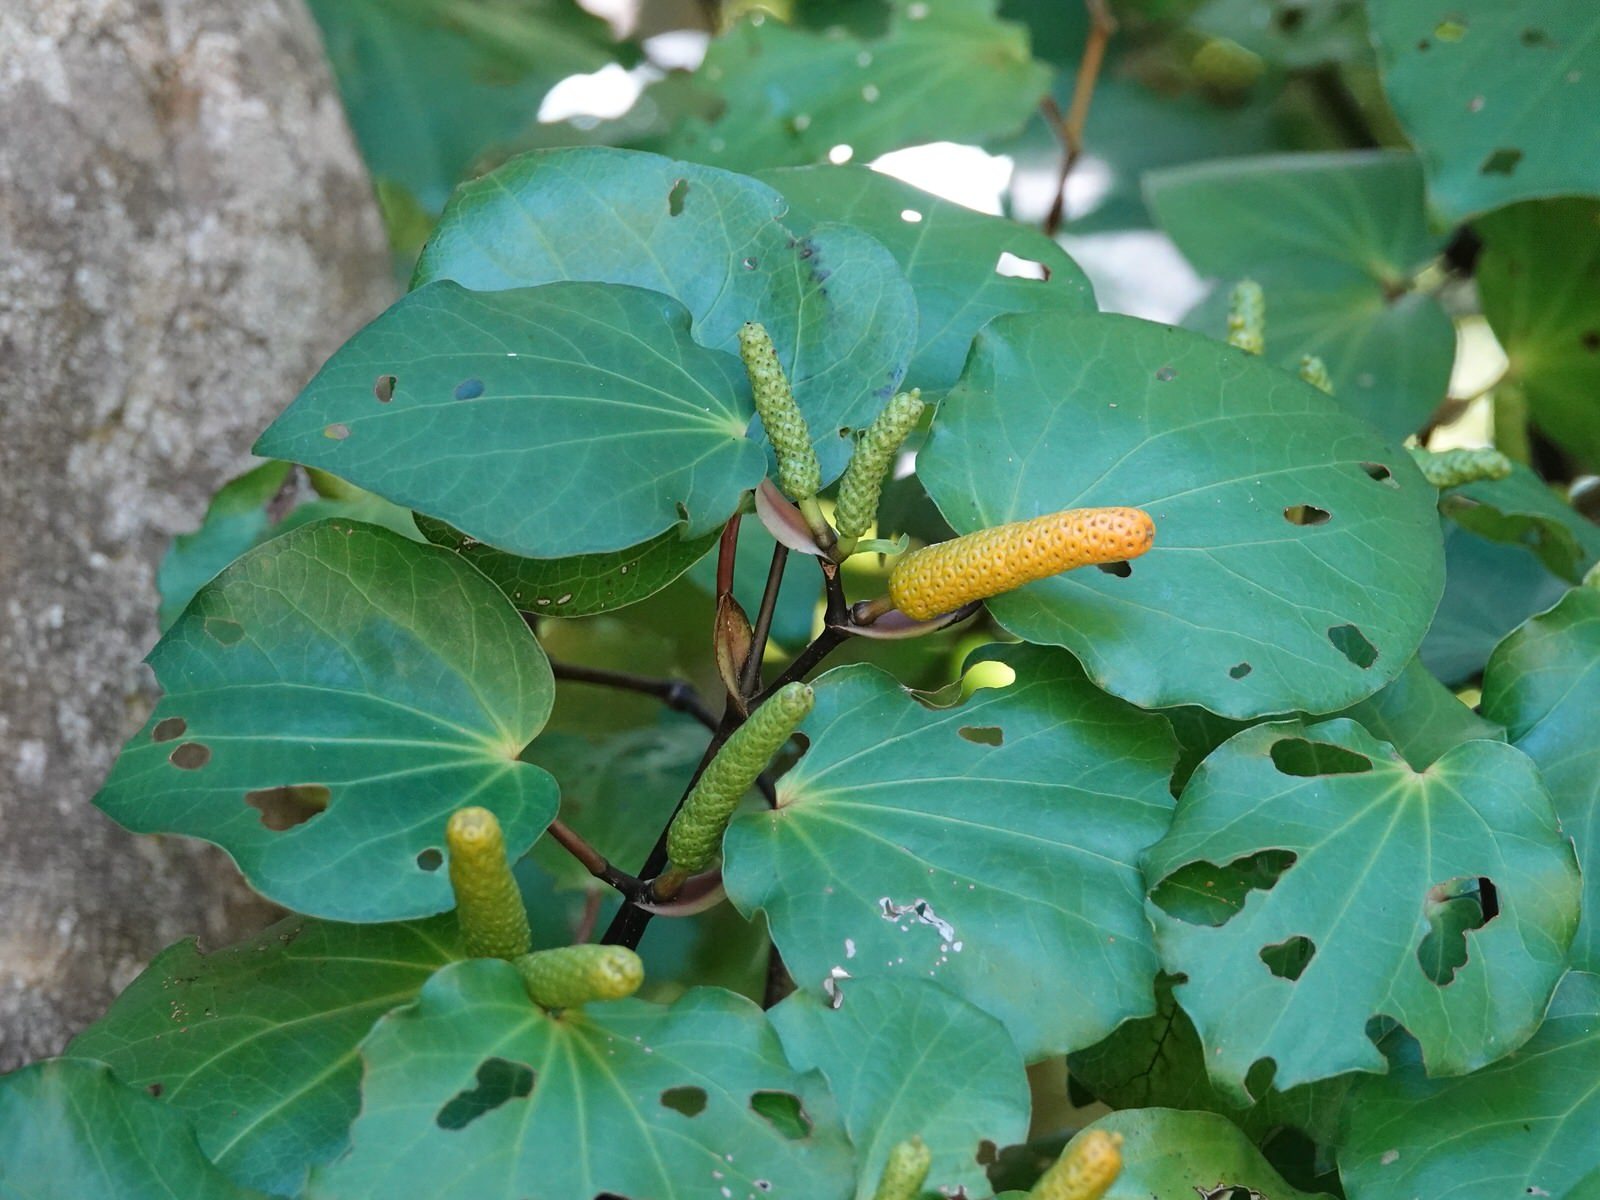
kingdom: Plantae
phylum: Tracheophyta
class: Magnoliopsida
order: Piperales
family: Piperaceae
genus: Macropiper
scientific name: Macropiper excelsum
